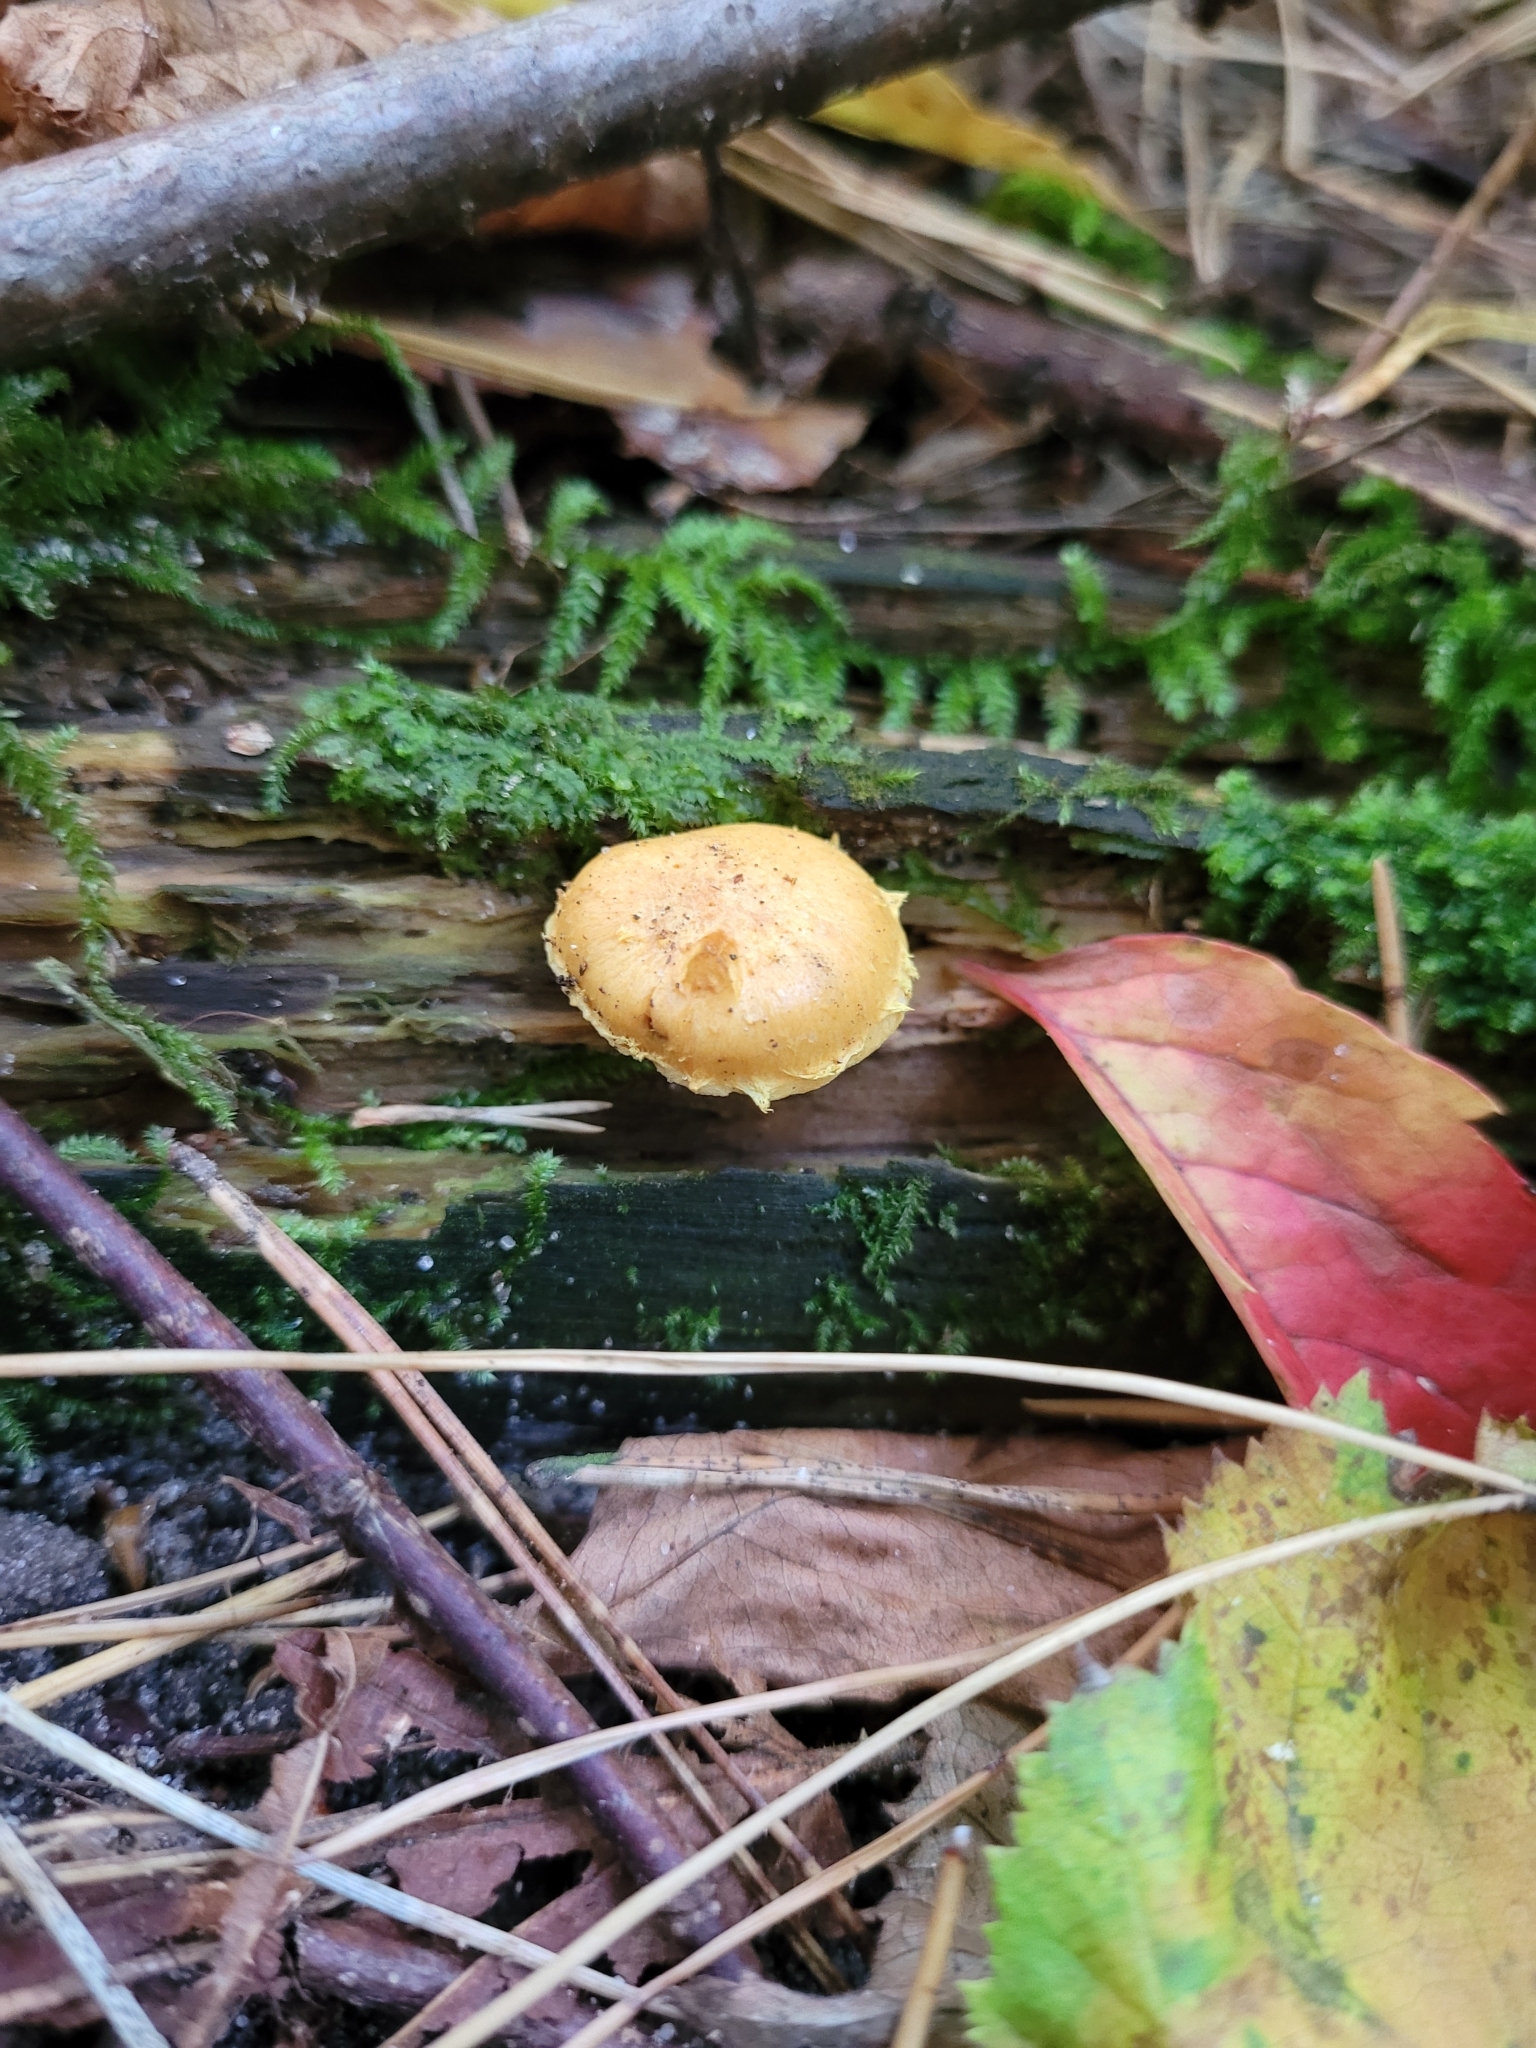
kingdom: Fungi
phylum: Basidiomycota
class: Agaricomycetes
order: Agaricales
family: Strophariaceae
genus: Pholiota
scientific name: Pholiota flammans
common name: Flaming scalycap
